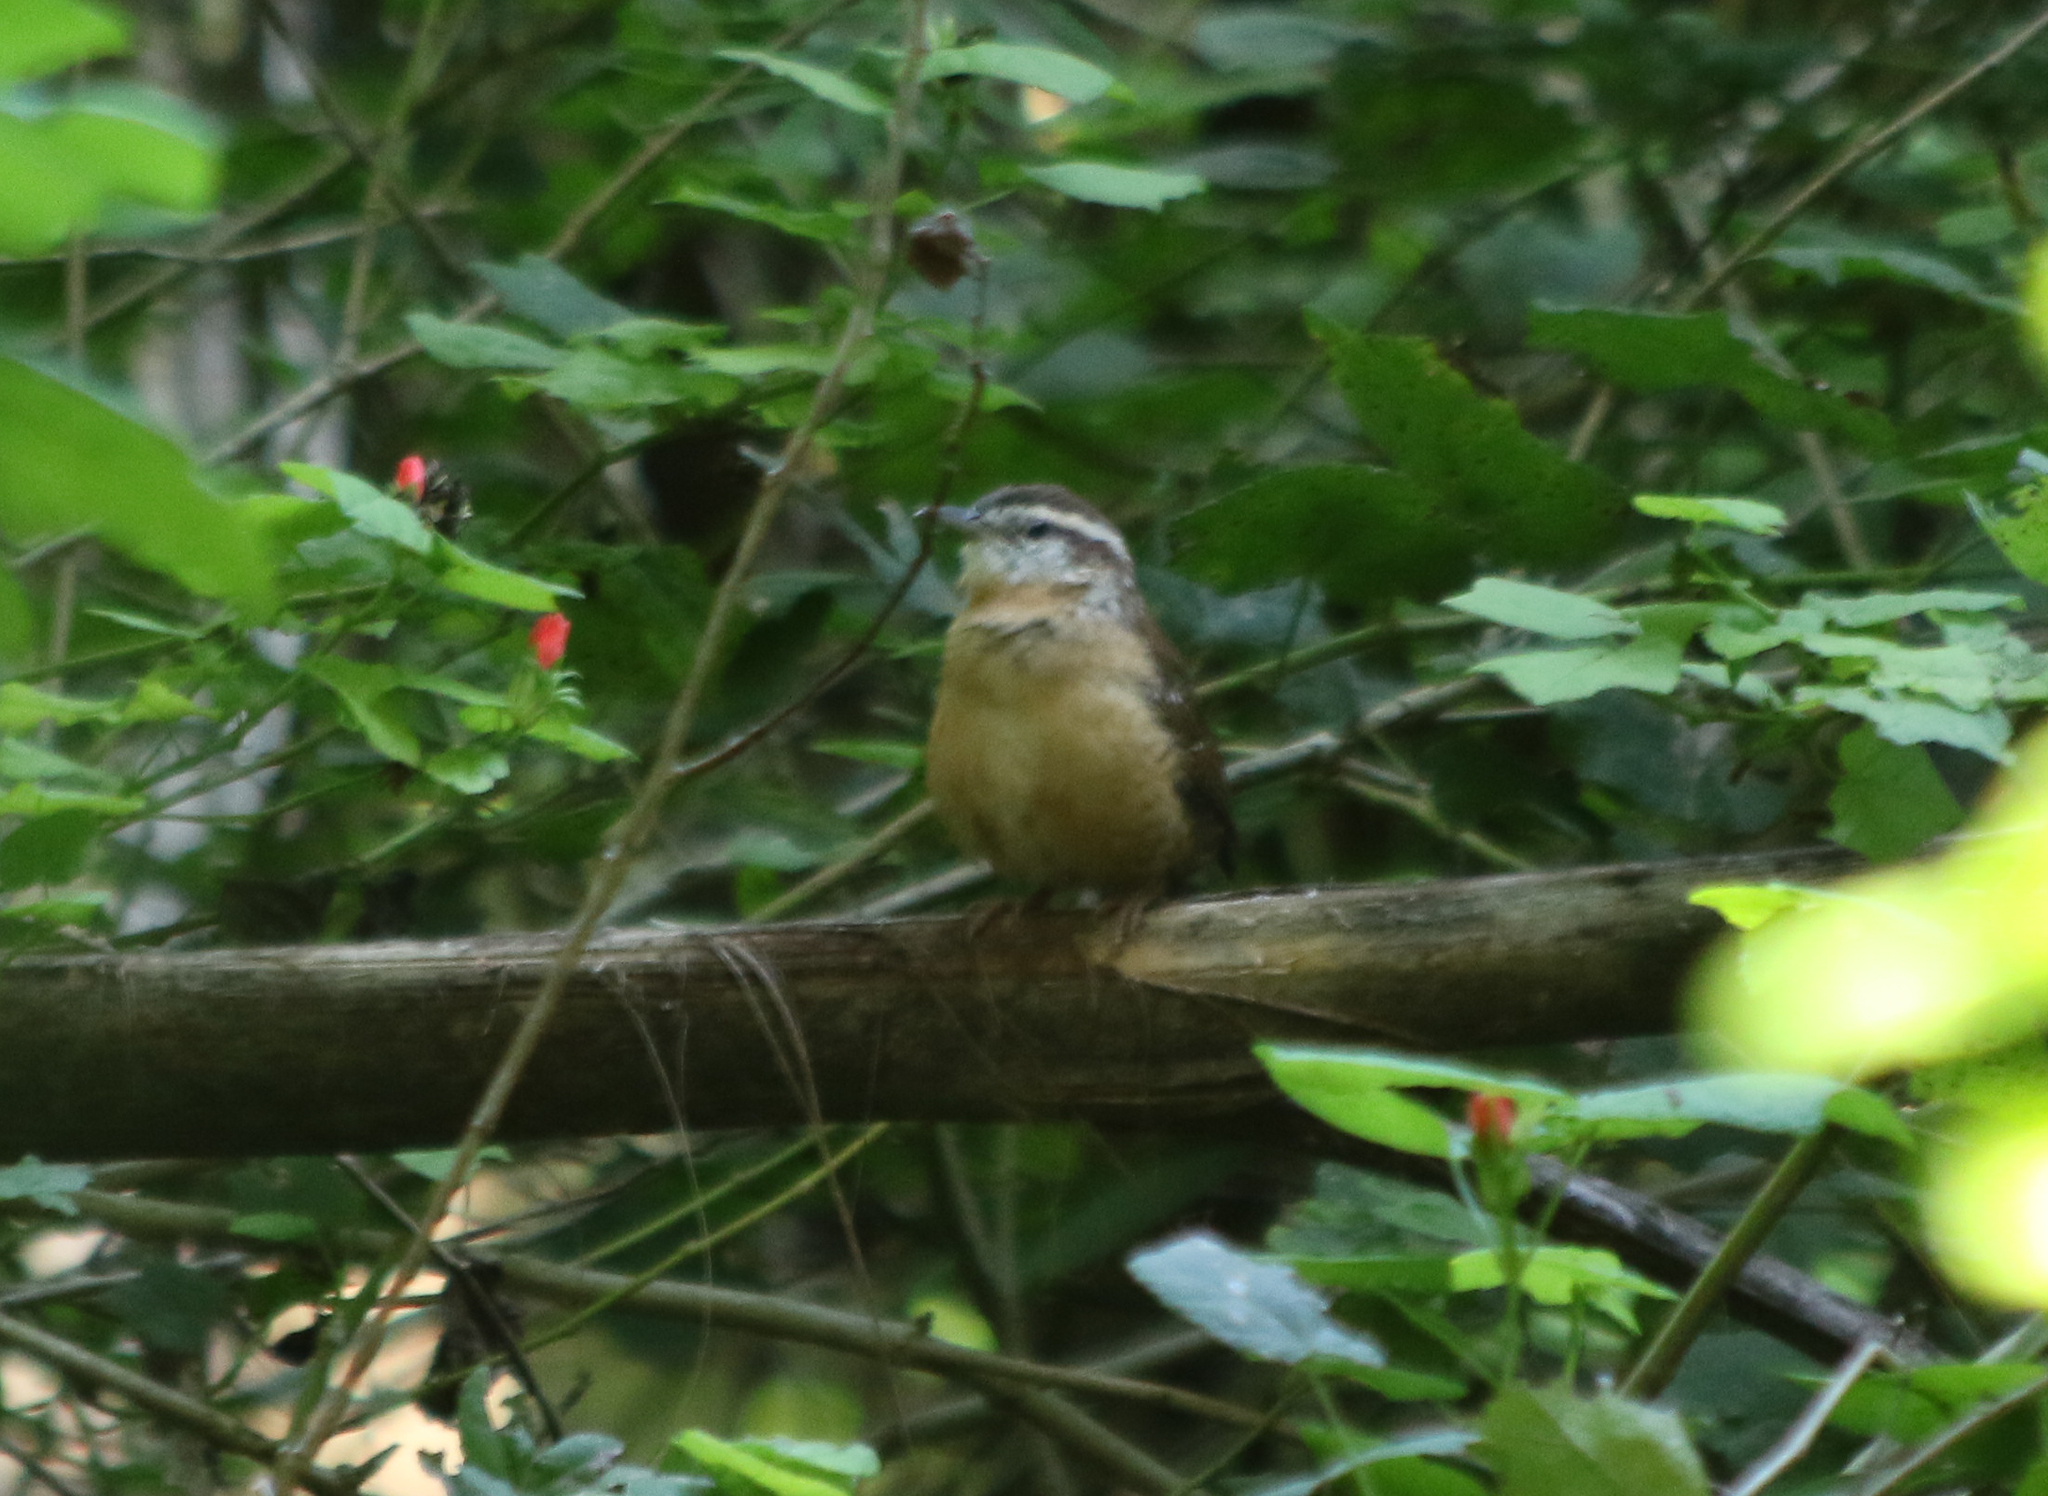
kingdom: Animalia
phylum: Chordata
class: Aves
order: Passeriformes
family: Troglodytidae
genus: Thryothorus
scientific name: Thryothorus ludovicianus
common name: Carolina wren
